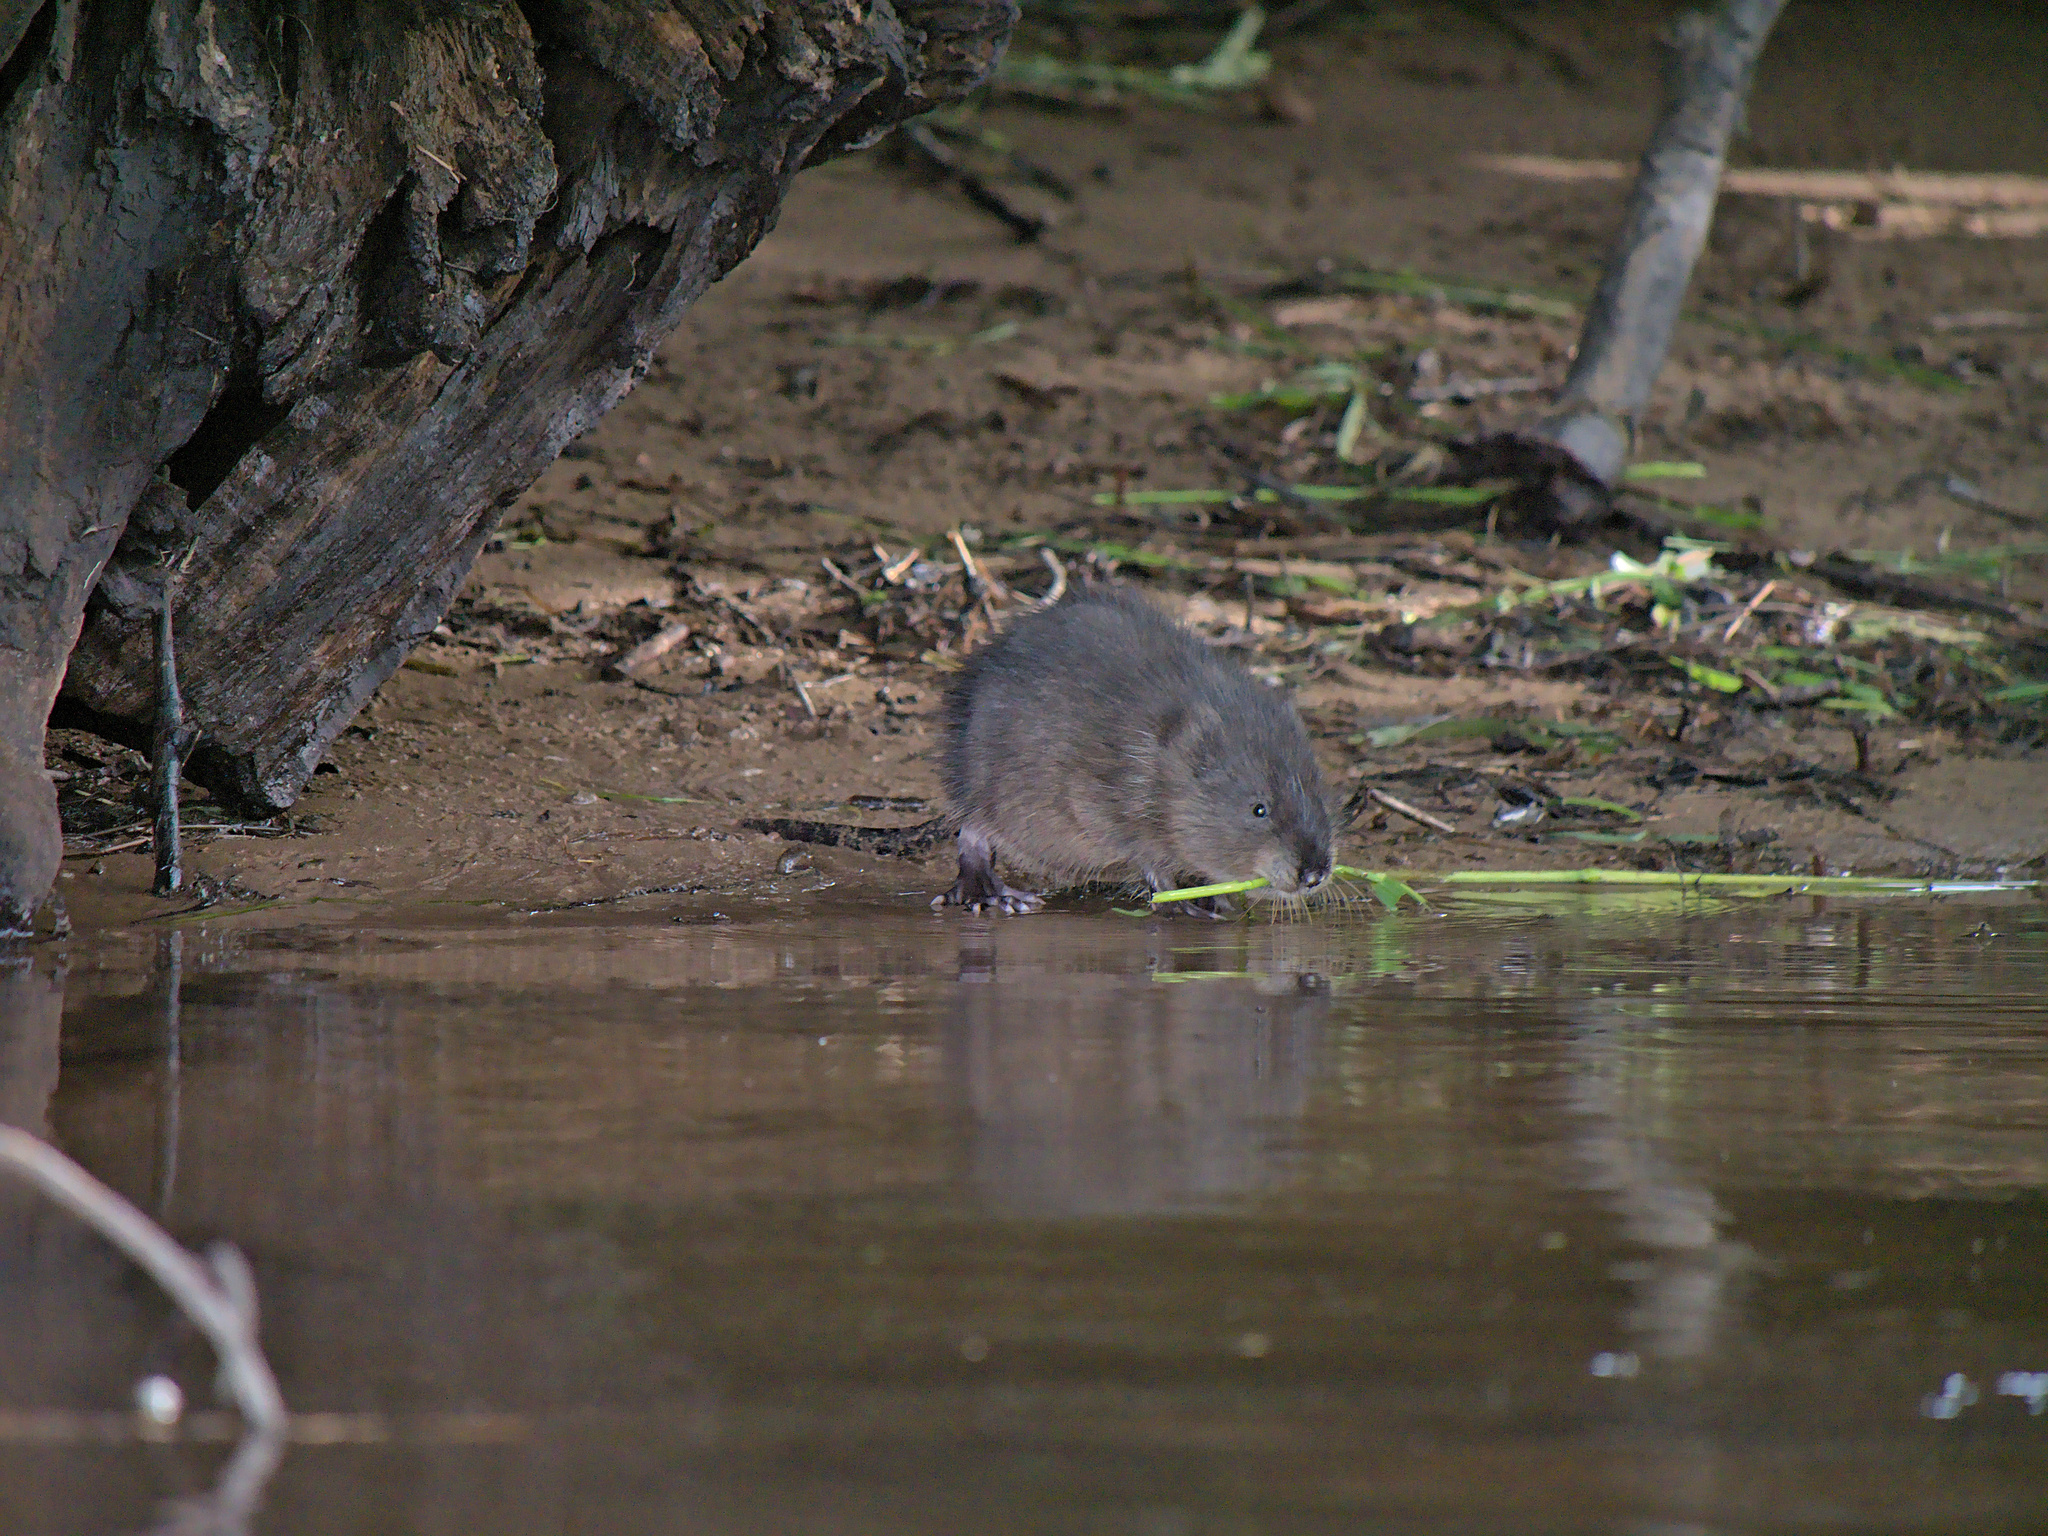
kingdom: Animalia
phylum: Chordata
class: Mammalia
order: Rodentia
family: Cricetidae
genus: Ondatra
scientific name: Ondatra zibethicus
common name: Muskrat
